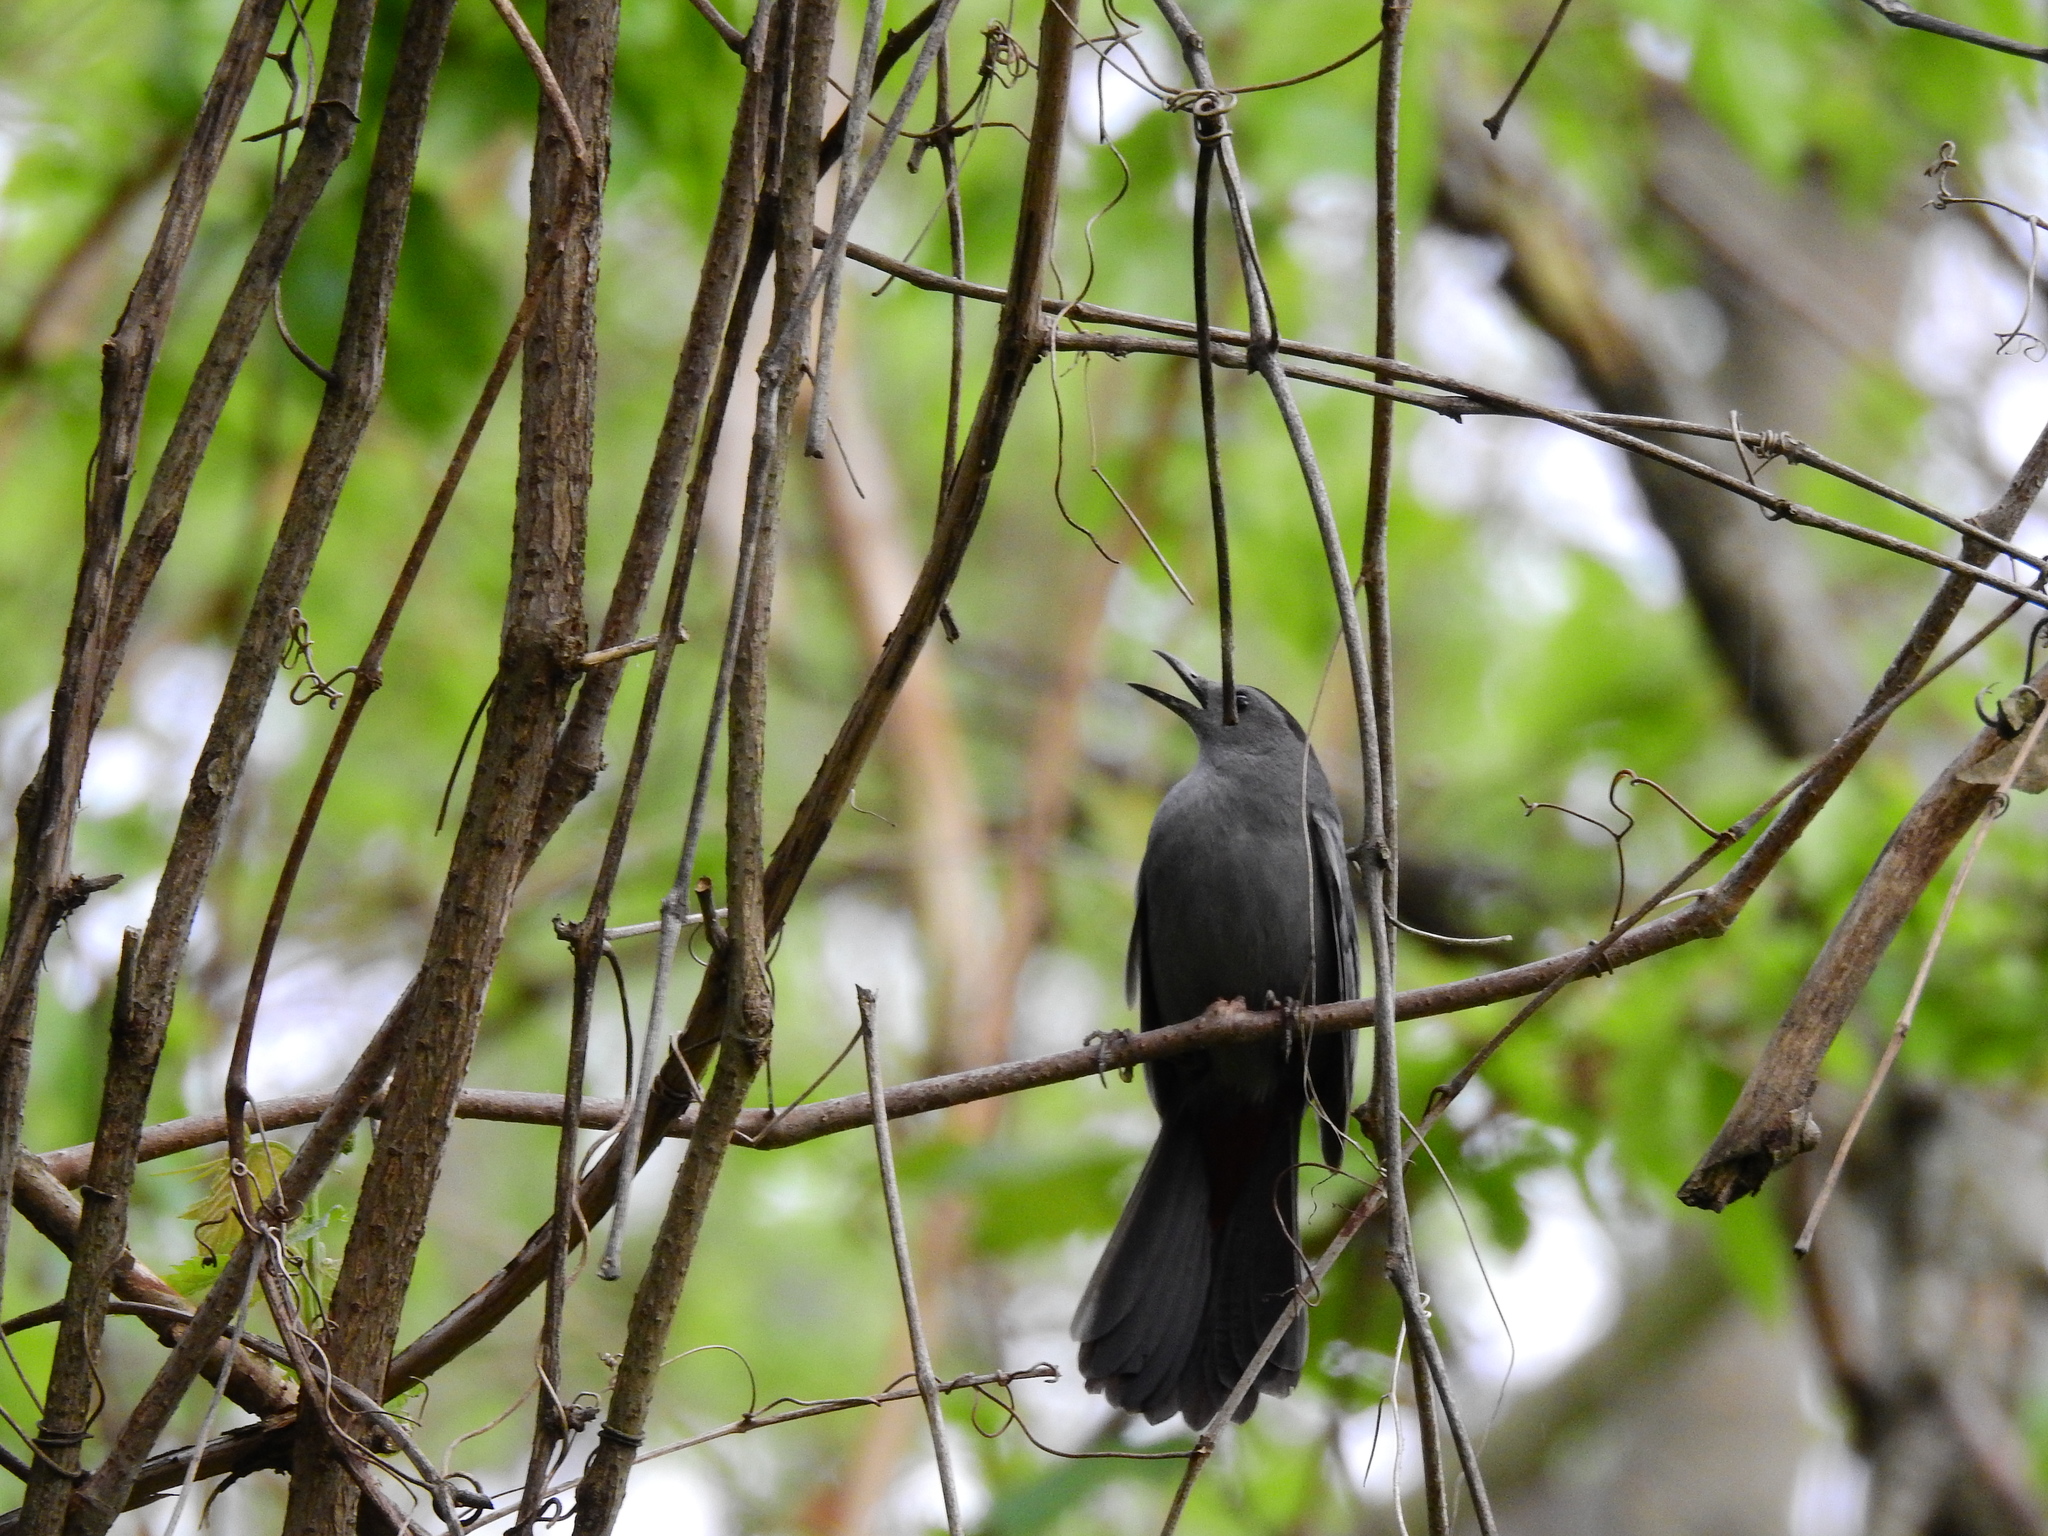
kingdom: Animalia
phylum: Chordata
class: Aves
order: Passeriformes
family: Mimidae
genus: Dumetella
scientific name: Dumetella carolinensis
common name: Gray catbird
